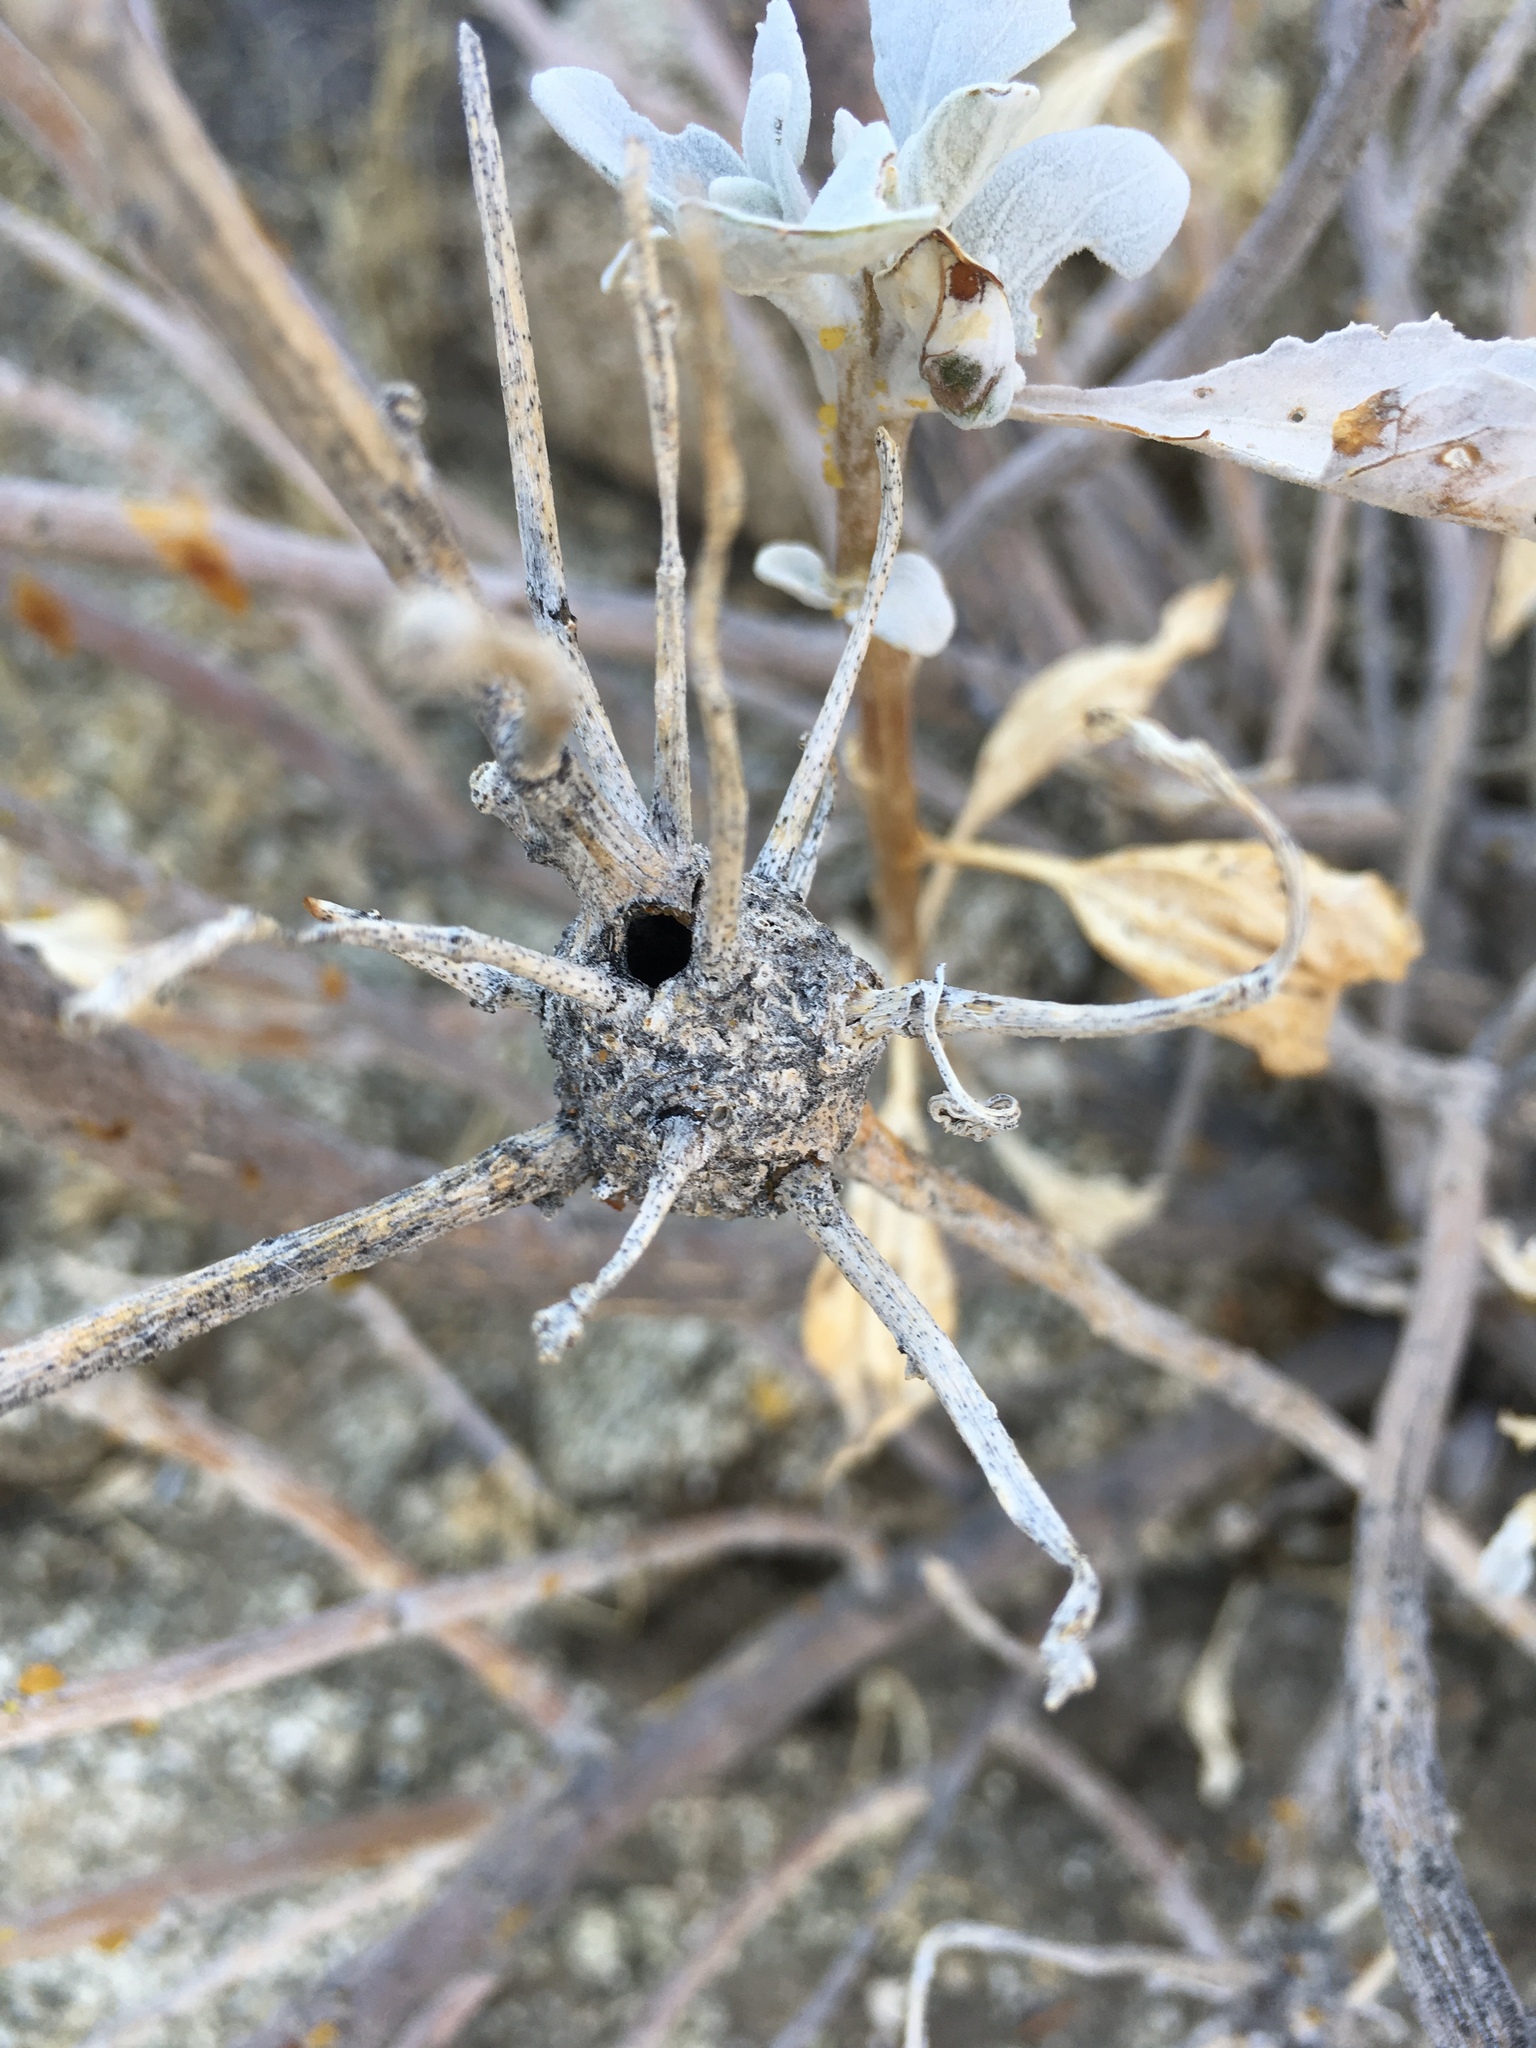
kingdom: Animalia
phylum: Arthropoda
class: Insecta
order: Diptera
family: Cecidomyiidae
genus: Asphondylia
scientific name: Asphondylia enceliae
